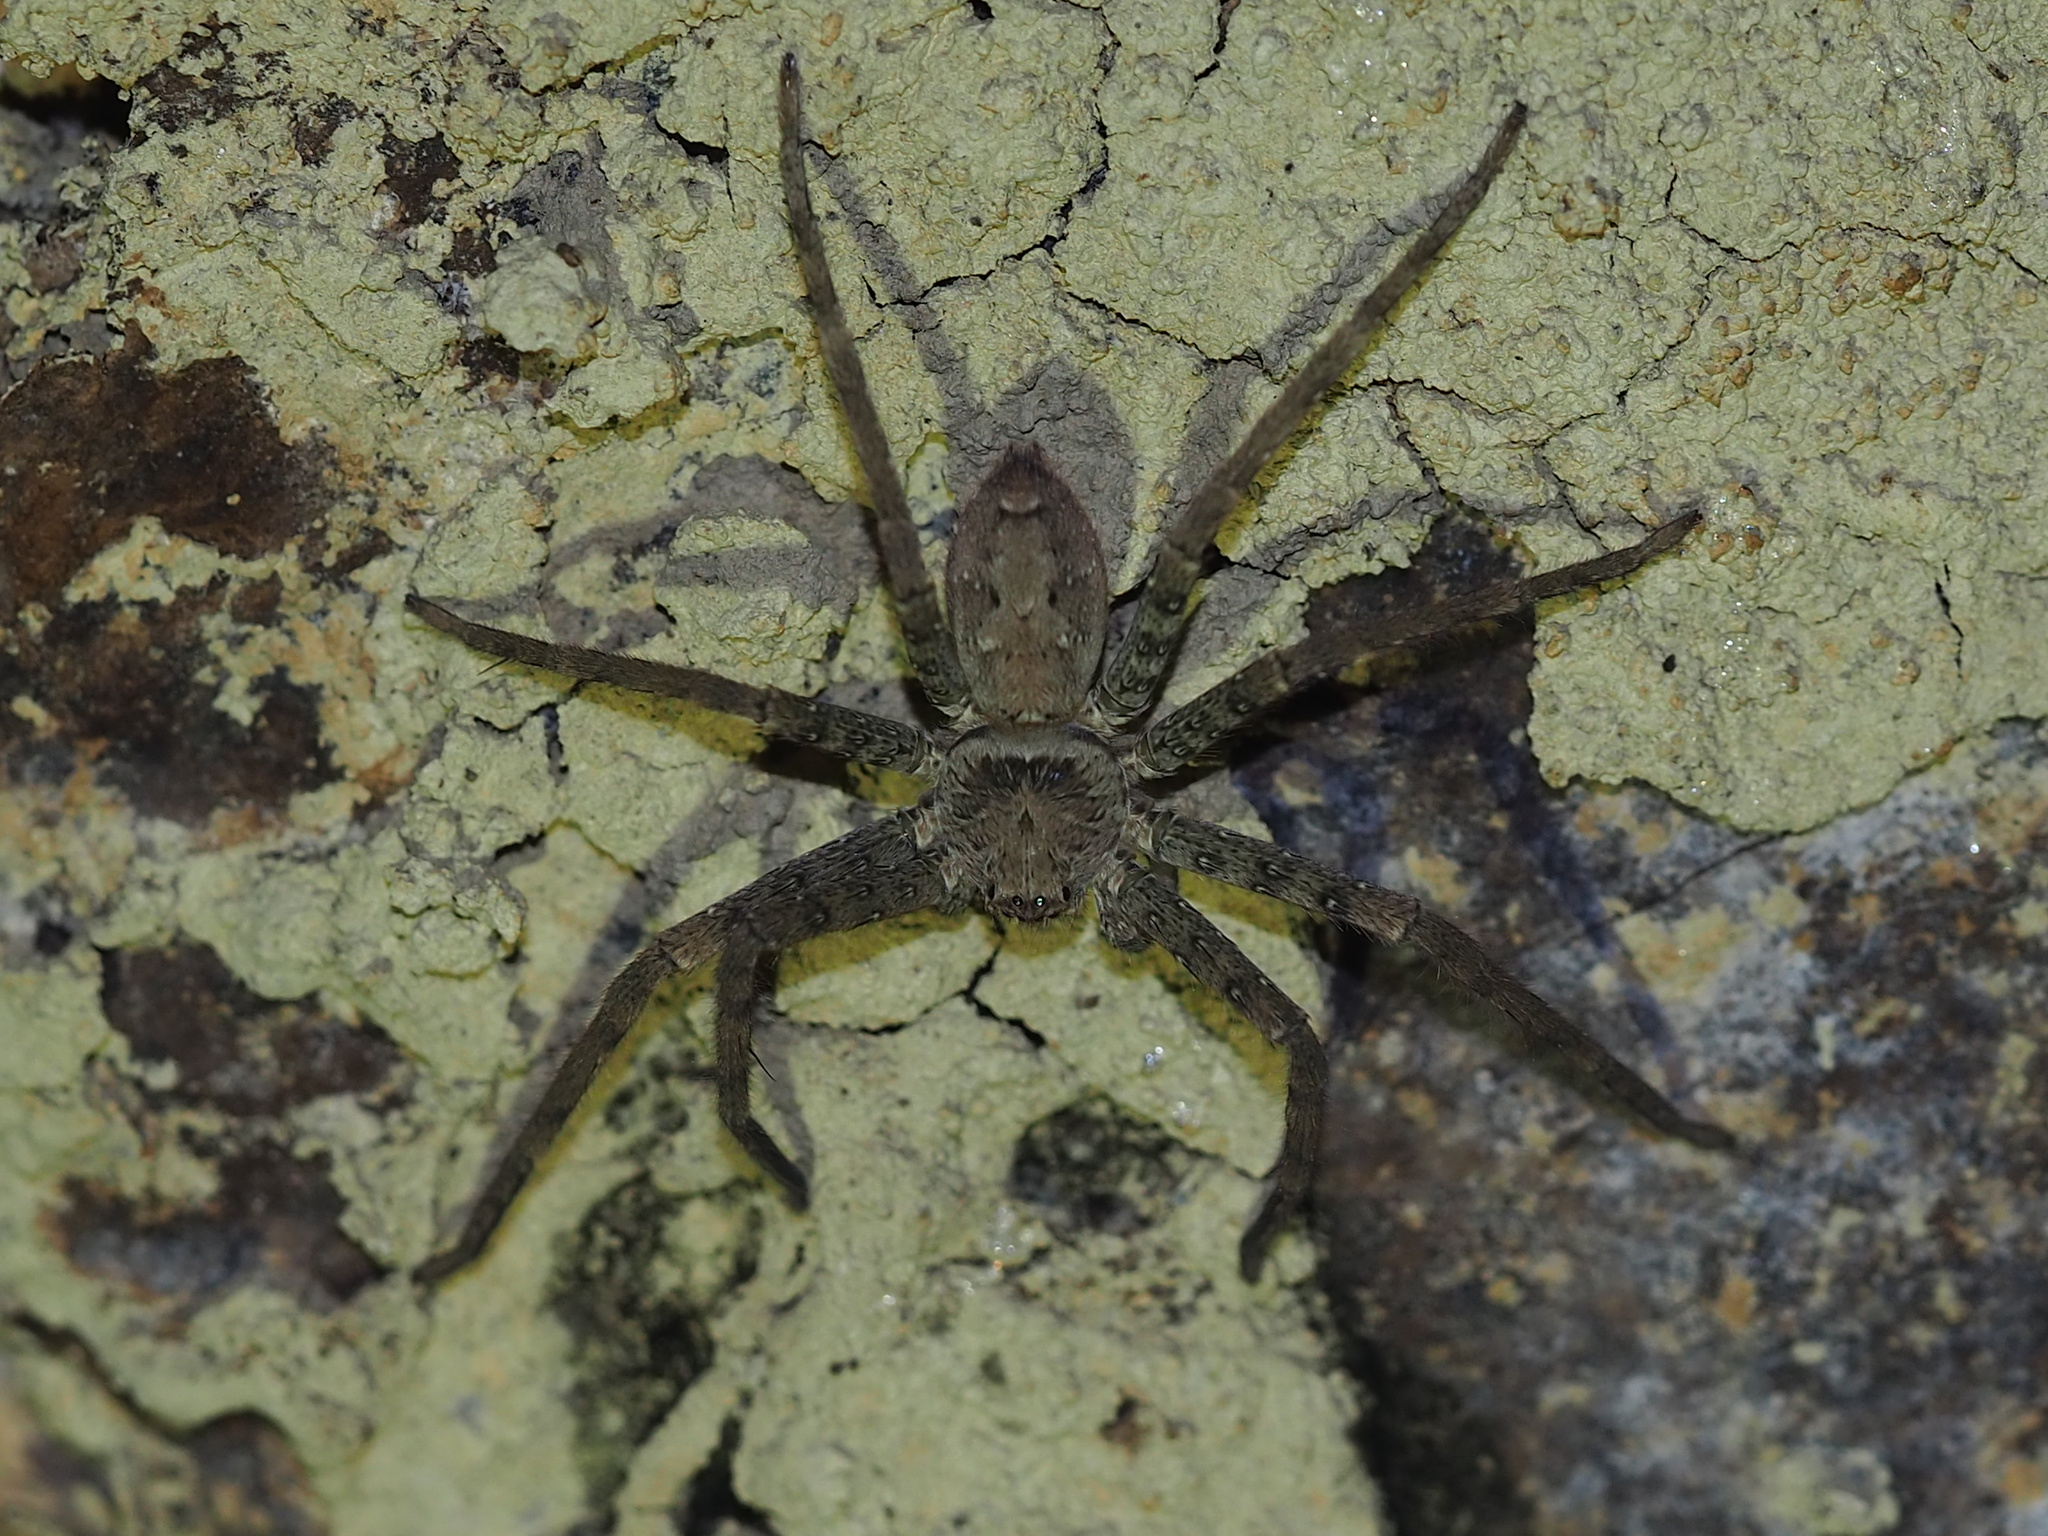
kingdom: Animalia
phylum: Arthropoda
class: Arachnida
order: Araneae
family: Sparassidae
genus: Heteropoda
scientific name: Heteropoda venatoria
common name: Huntsman spider
